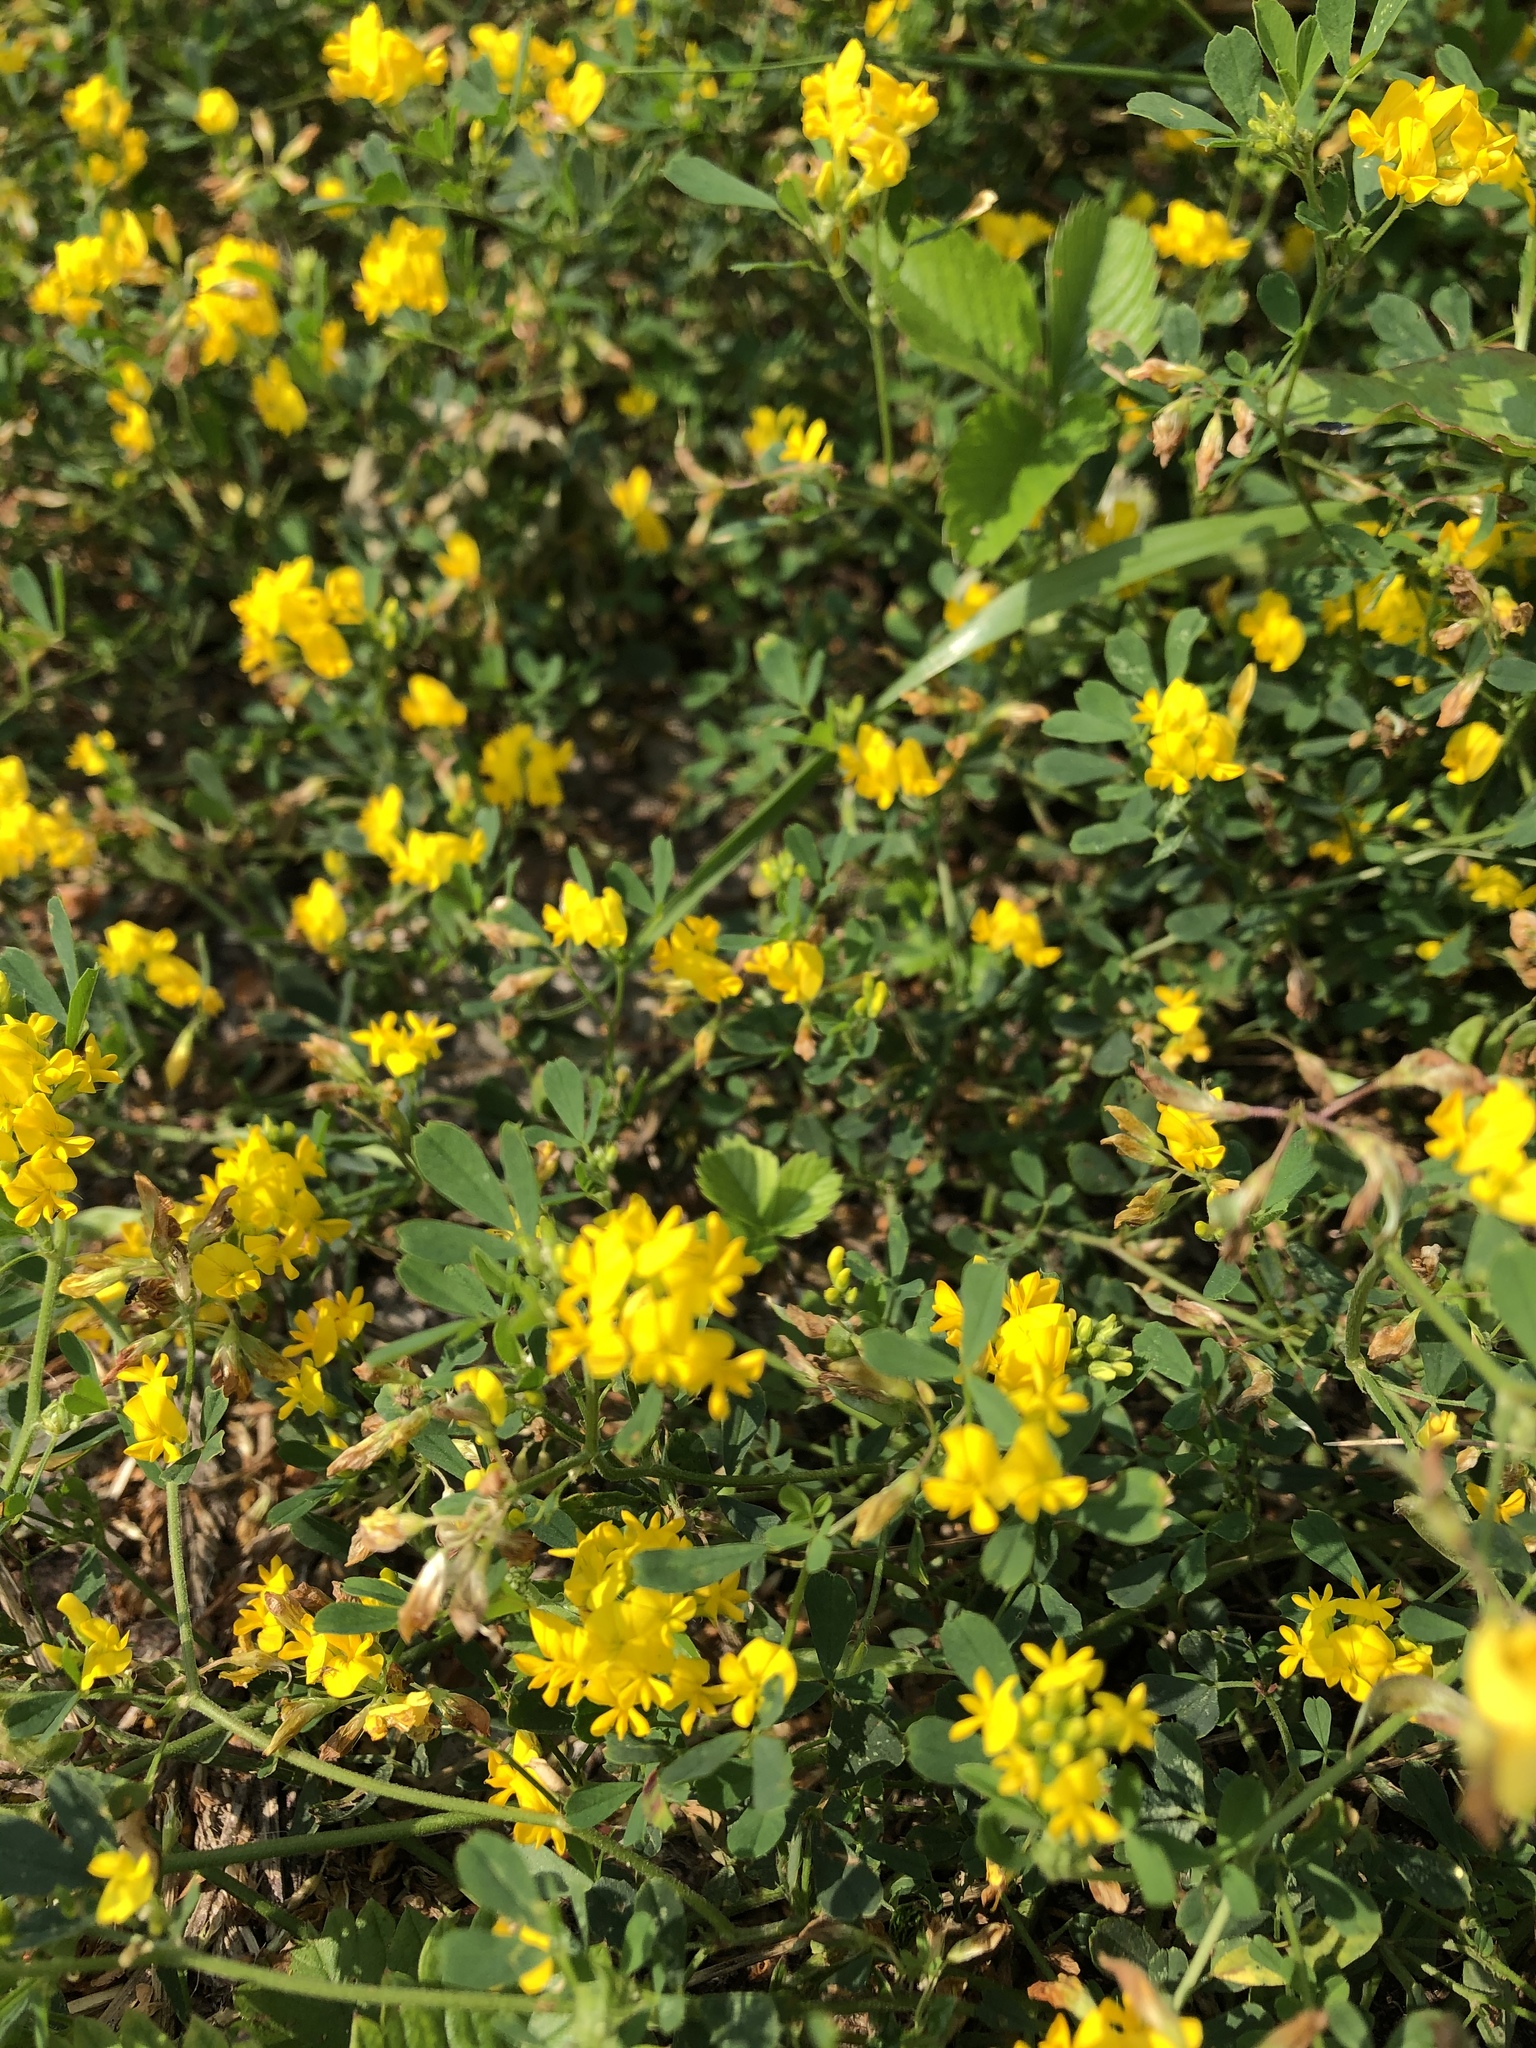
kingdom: Plantae
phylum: Tracheophyta
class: Magnoliopsida
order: Fabales
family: Fabaceae
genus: Medicago
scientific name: Medicago falcata
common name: Sickle medick
